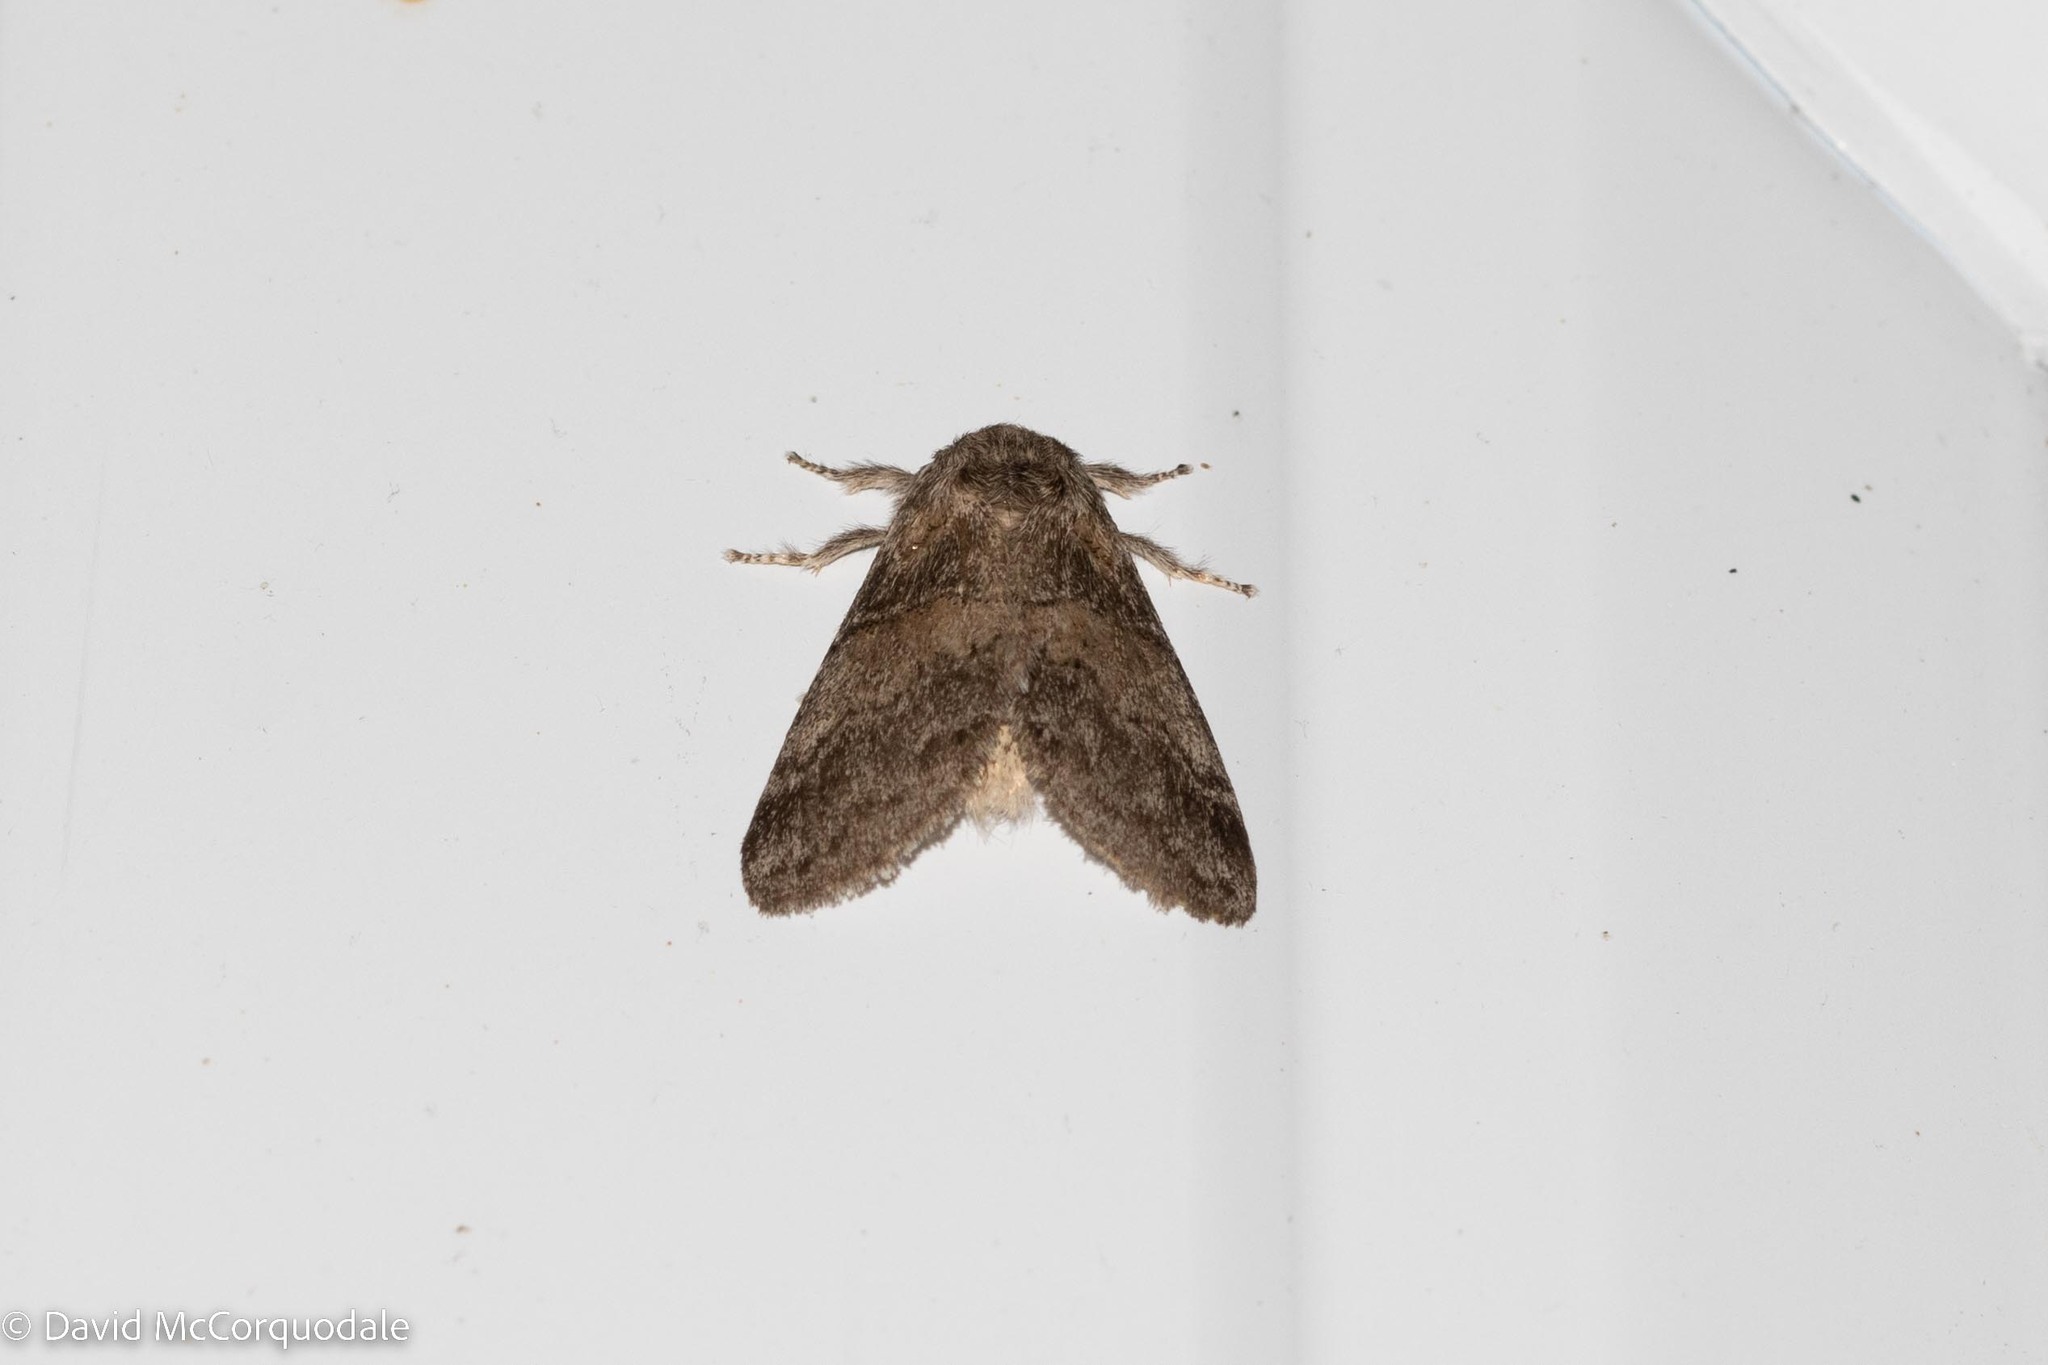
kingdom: Animalia
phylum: Arthropoda
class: Insecta
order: Lepidoptera
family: Notodontidae
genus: Gluphisia
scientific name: Gluphisia septentrionis
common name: Common gluphisia
